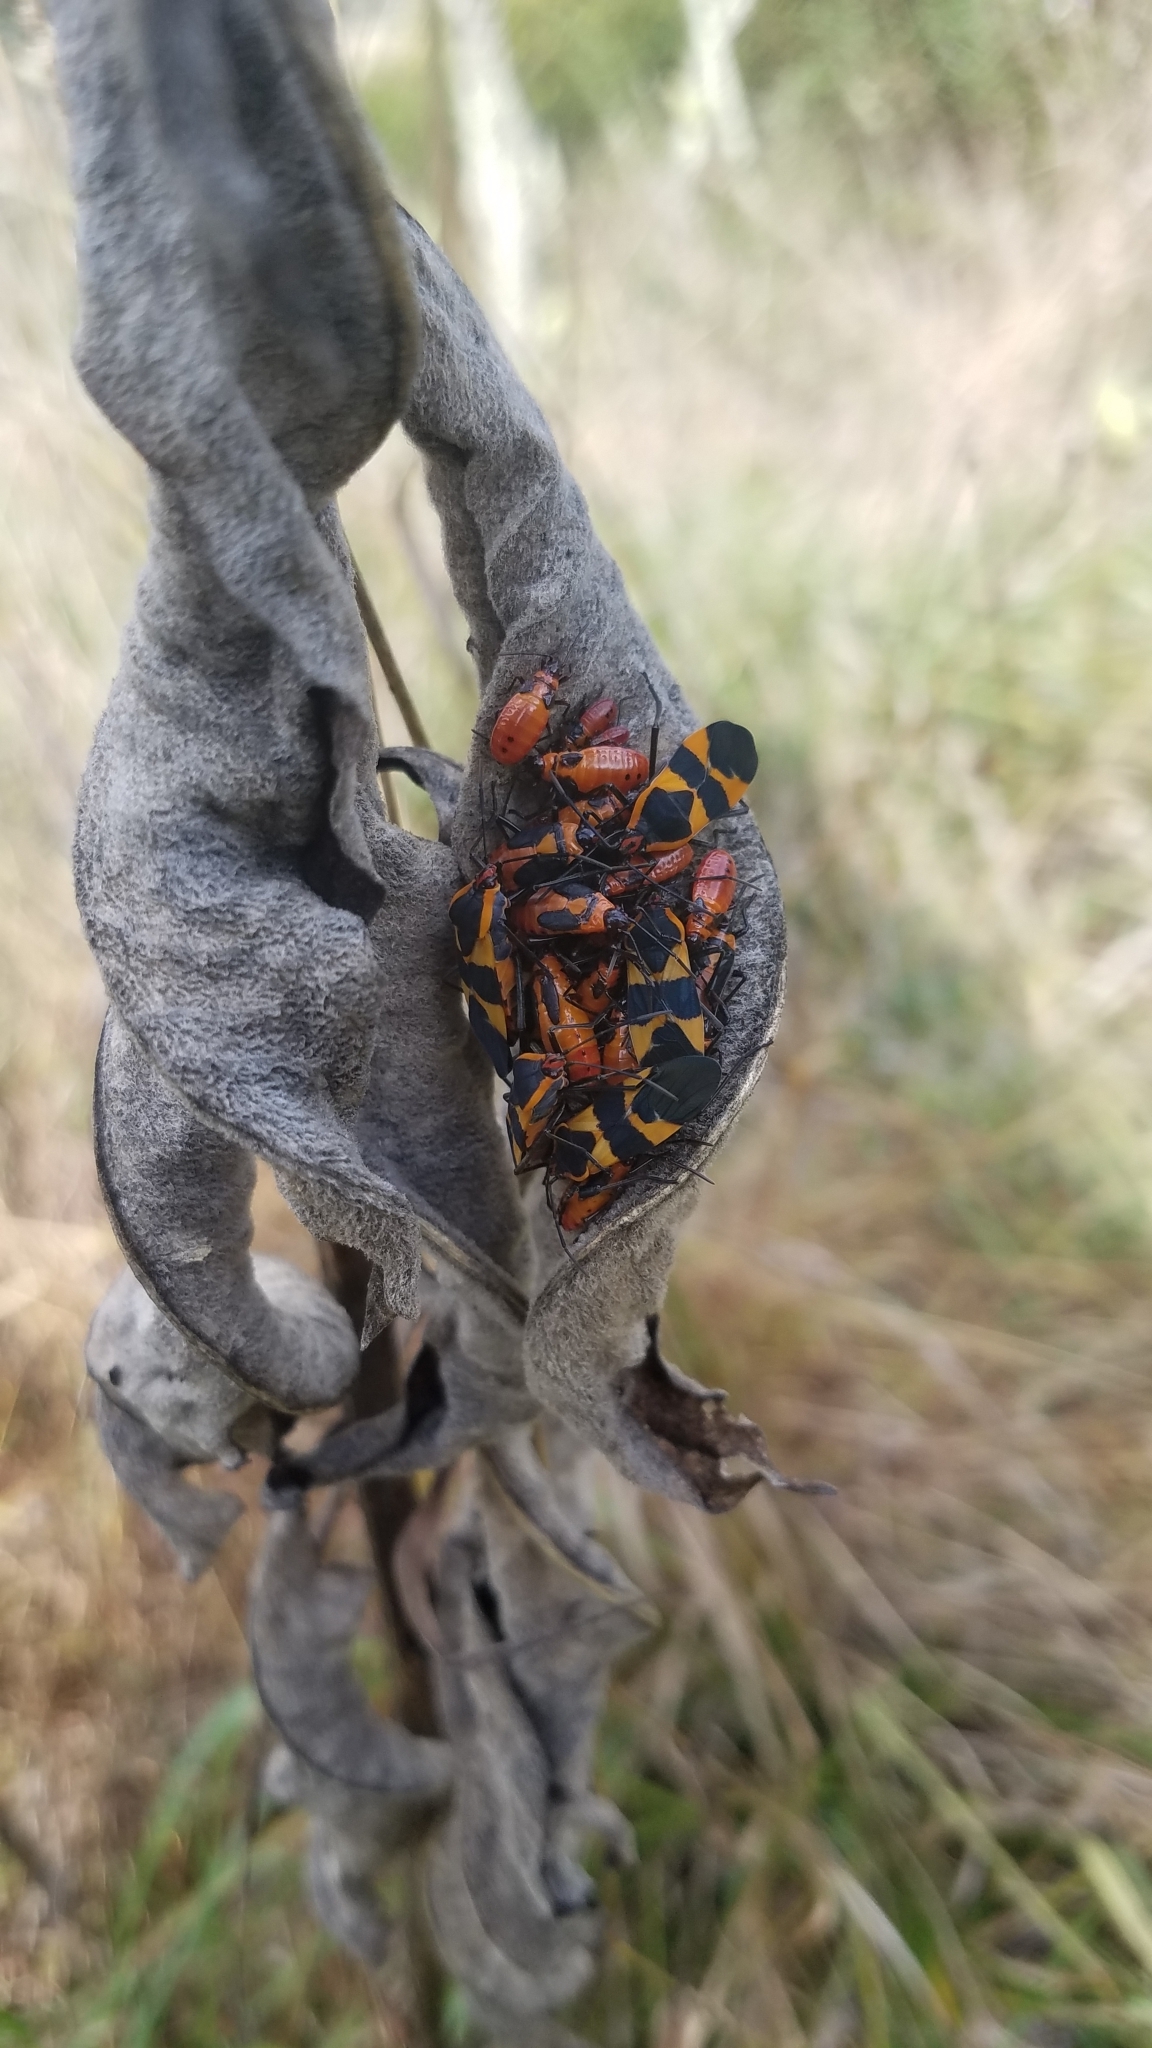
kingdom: Animalia
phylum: Arthropoda
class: Insecta
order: Hemiptera
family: Lygaeidae
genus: Oncopeltus
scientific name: Oncopeltus fasciatus
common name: Large milkweed bug
